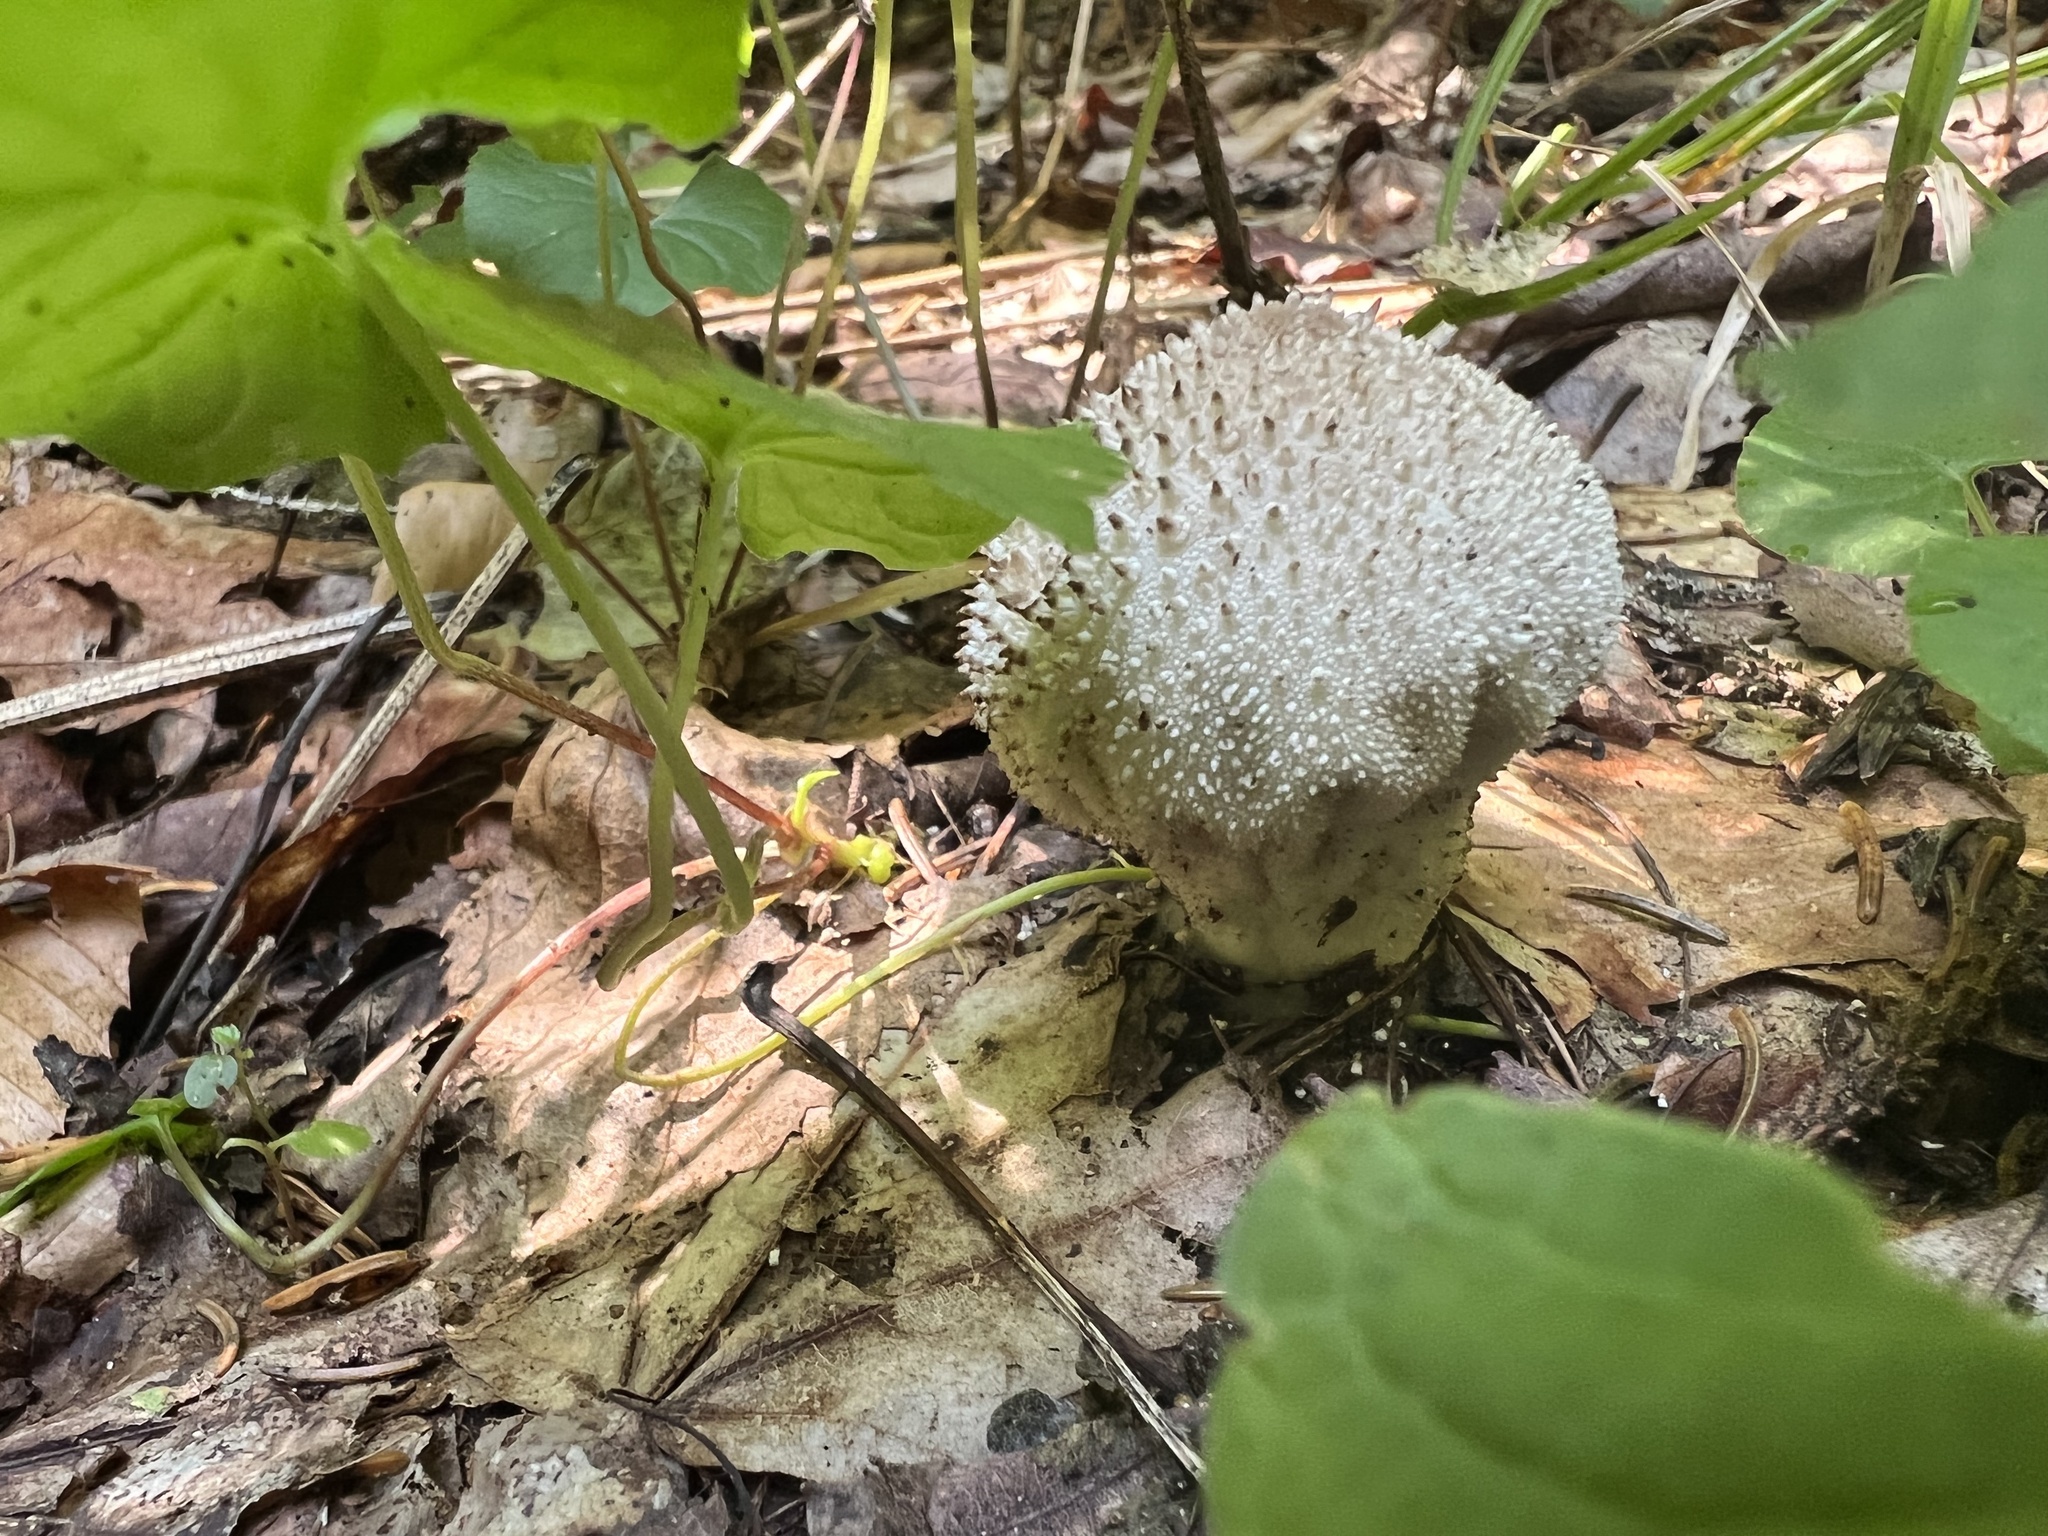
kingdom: Fungi
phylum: Basidiomycota
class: Agaricomycetes
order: Agaricales
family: Lycoperdaceae
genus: Lycoperdon
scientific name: Lycoperdon perlatum
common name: Common puffball
